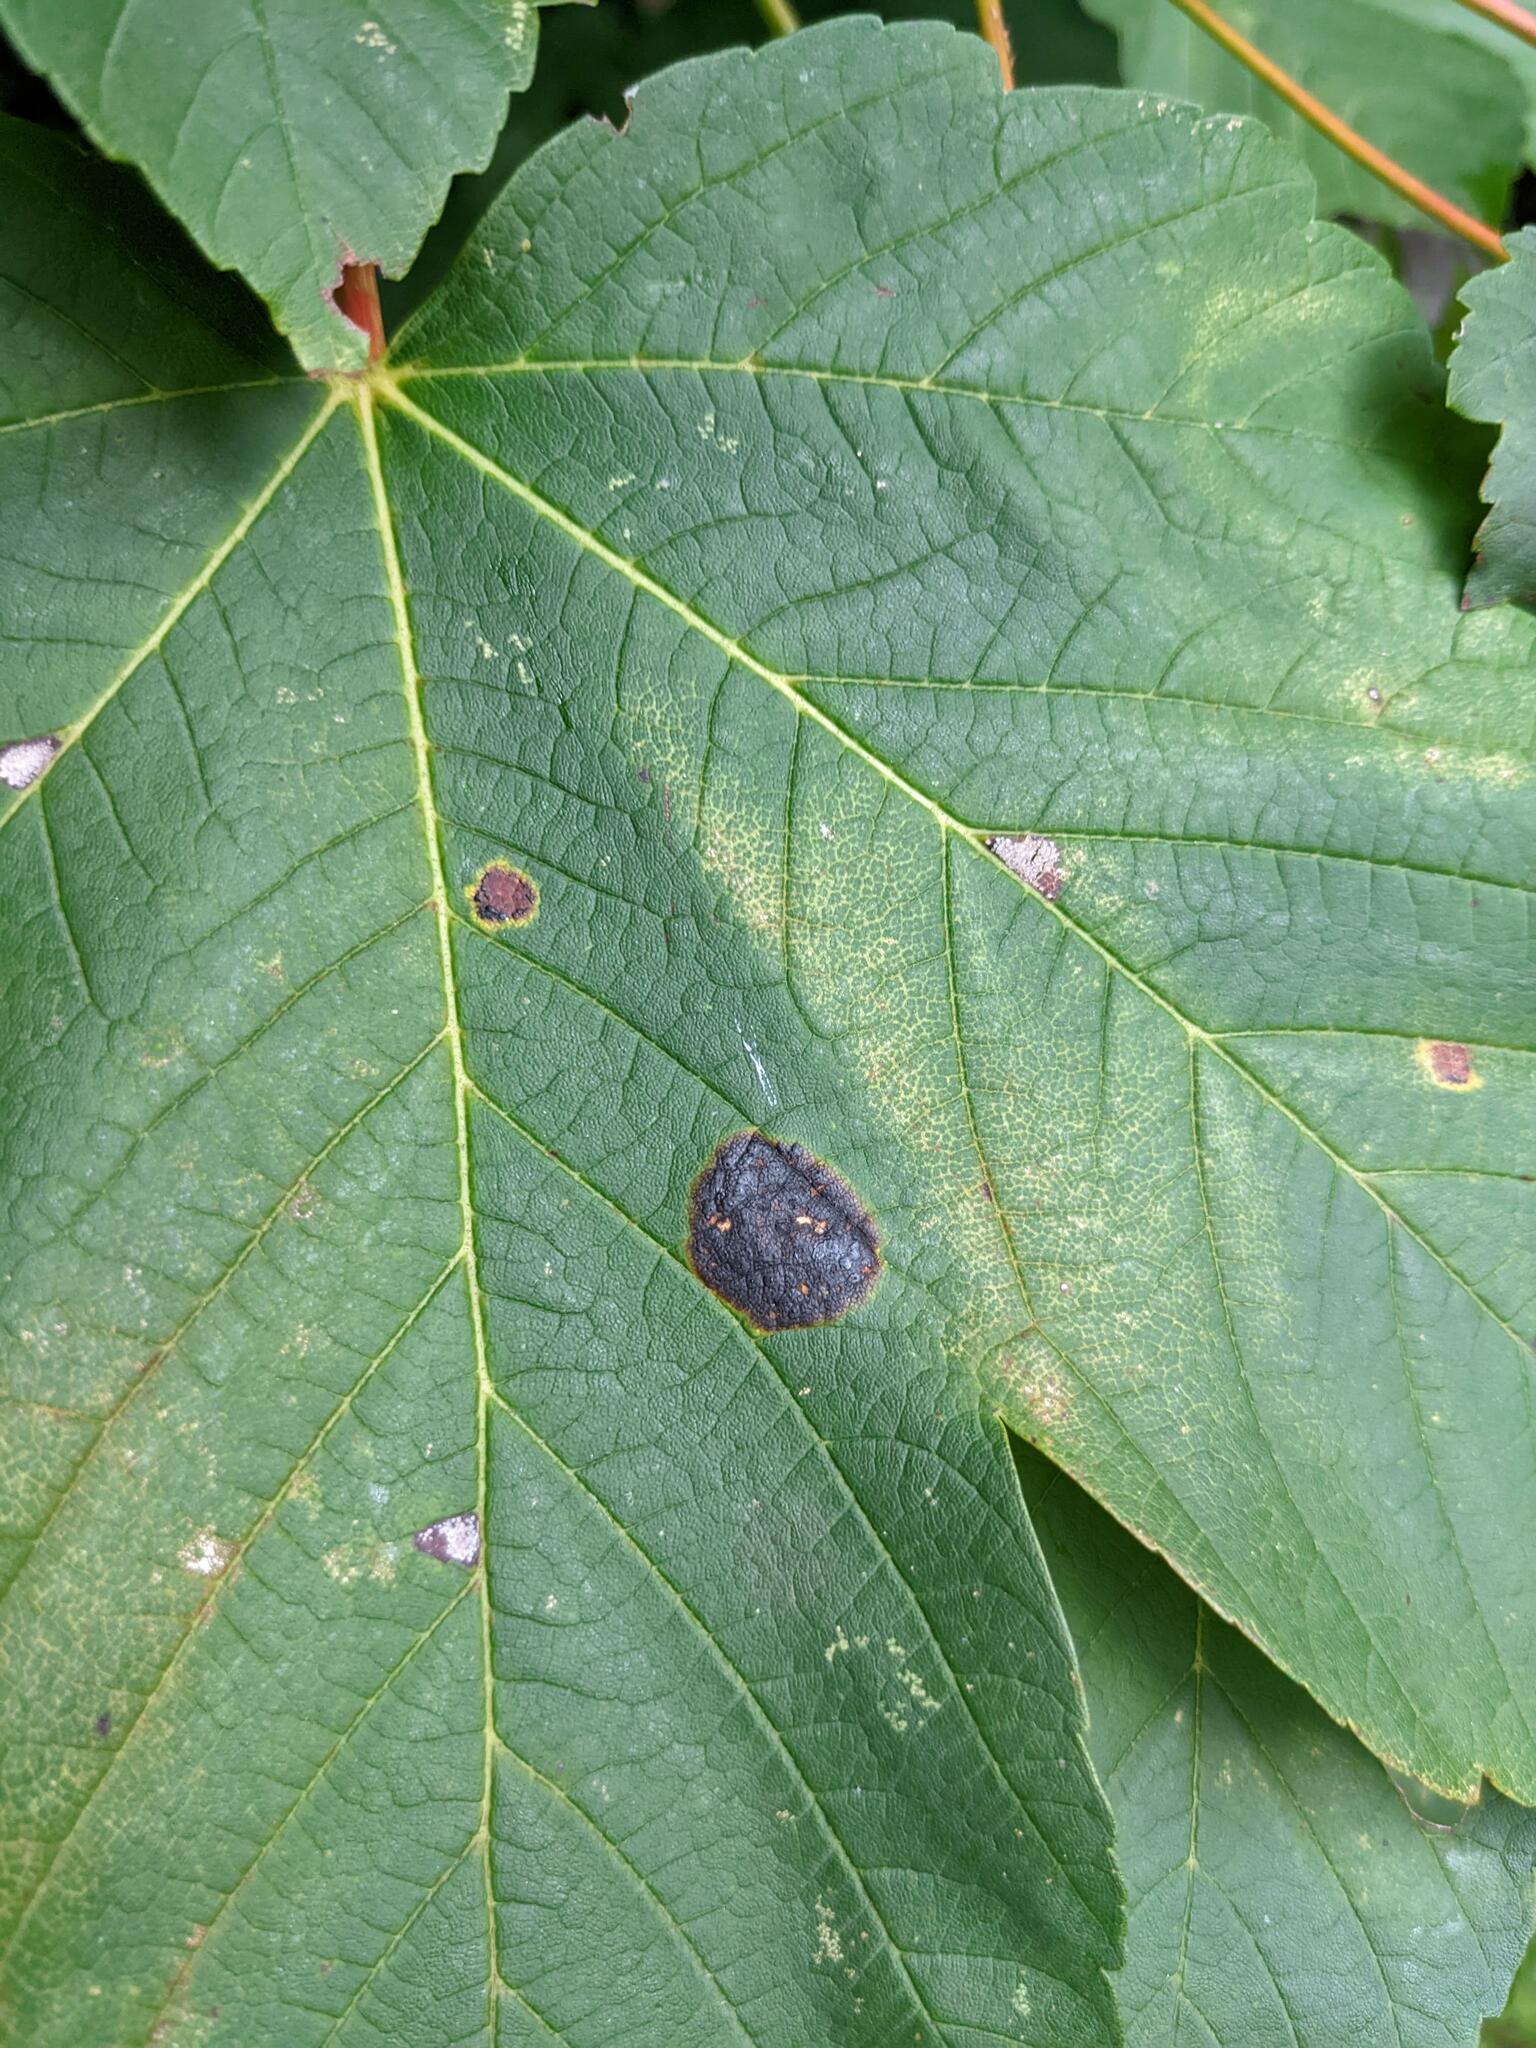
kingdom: Fungi
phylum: Ascomycota
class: Leotiomycetes
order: Rhytismatales
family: Rhytismataceae
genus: Rhytisma
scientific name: Rhytisma acerinum
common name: European tar spot
